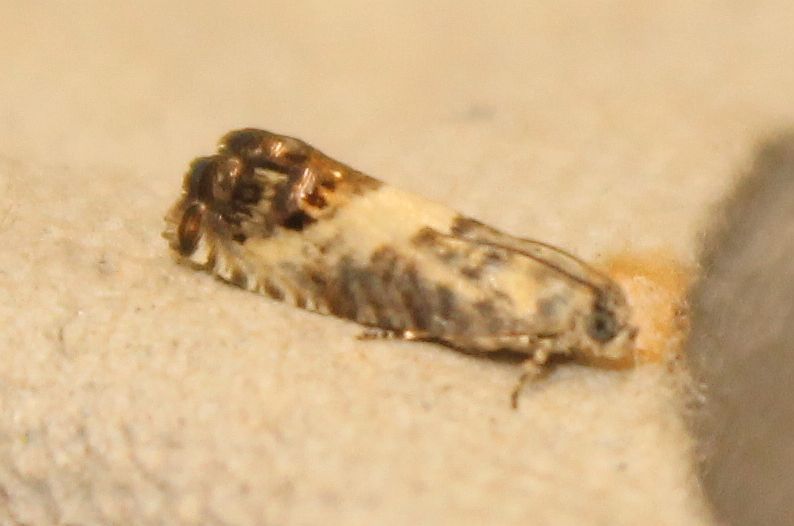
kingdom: Animalia
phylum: Arthropoda
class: Insecta
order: Lepidoptera
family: Tortricidae
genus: Pammene
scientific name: Pammene fasciana
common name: Acorn piercer
